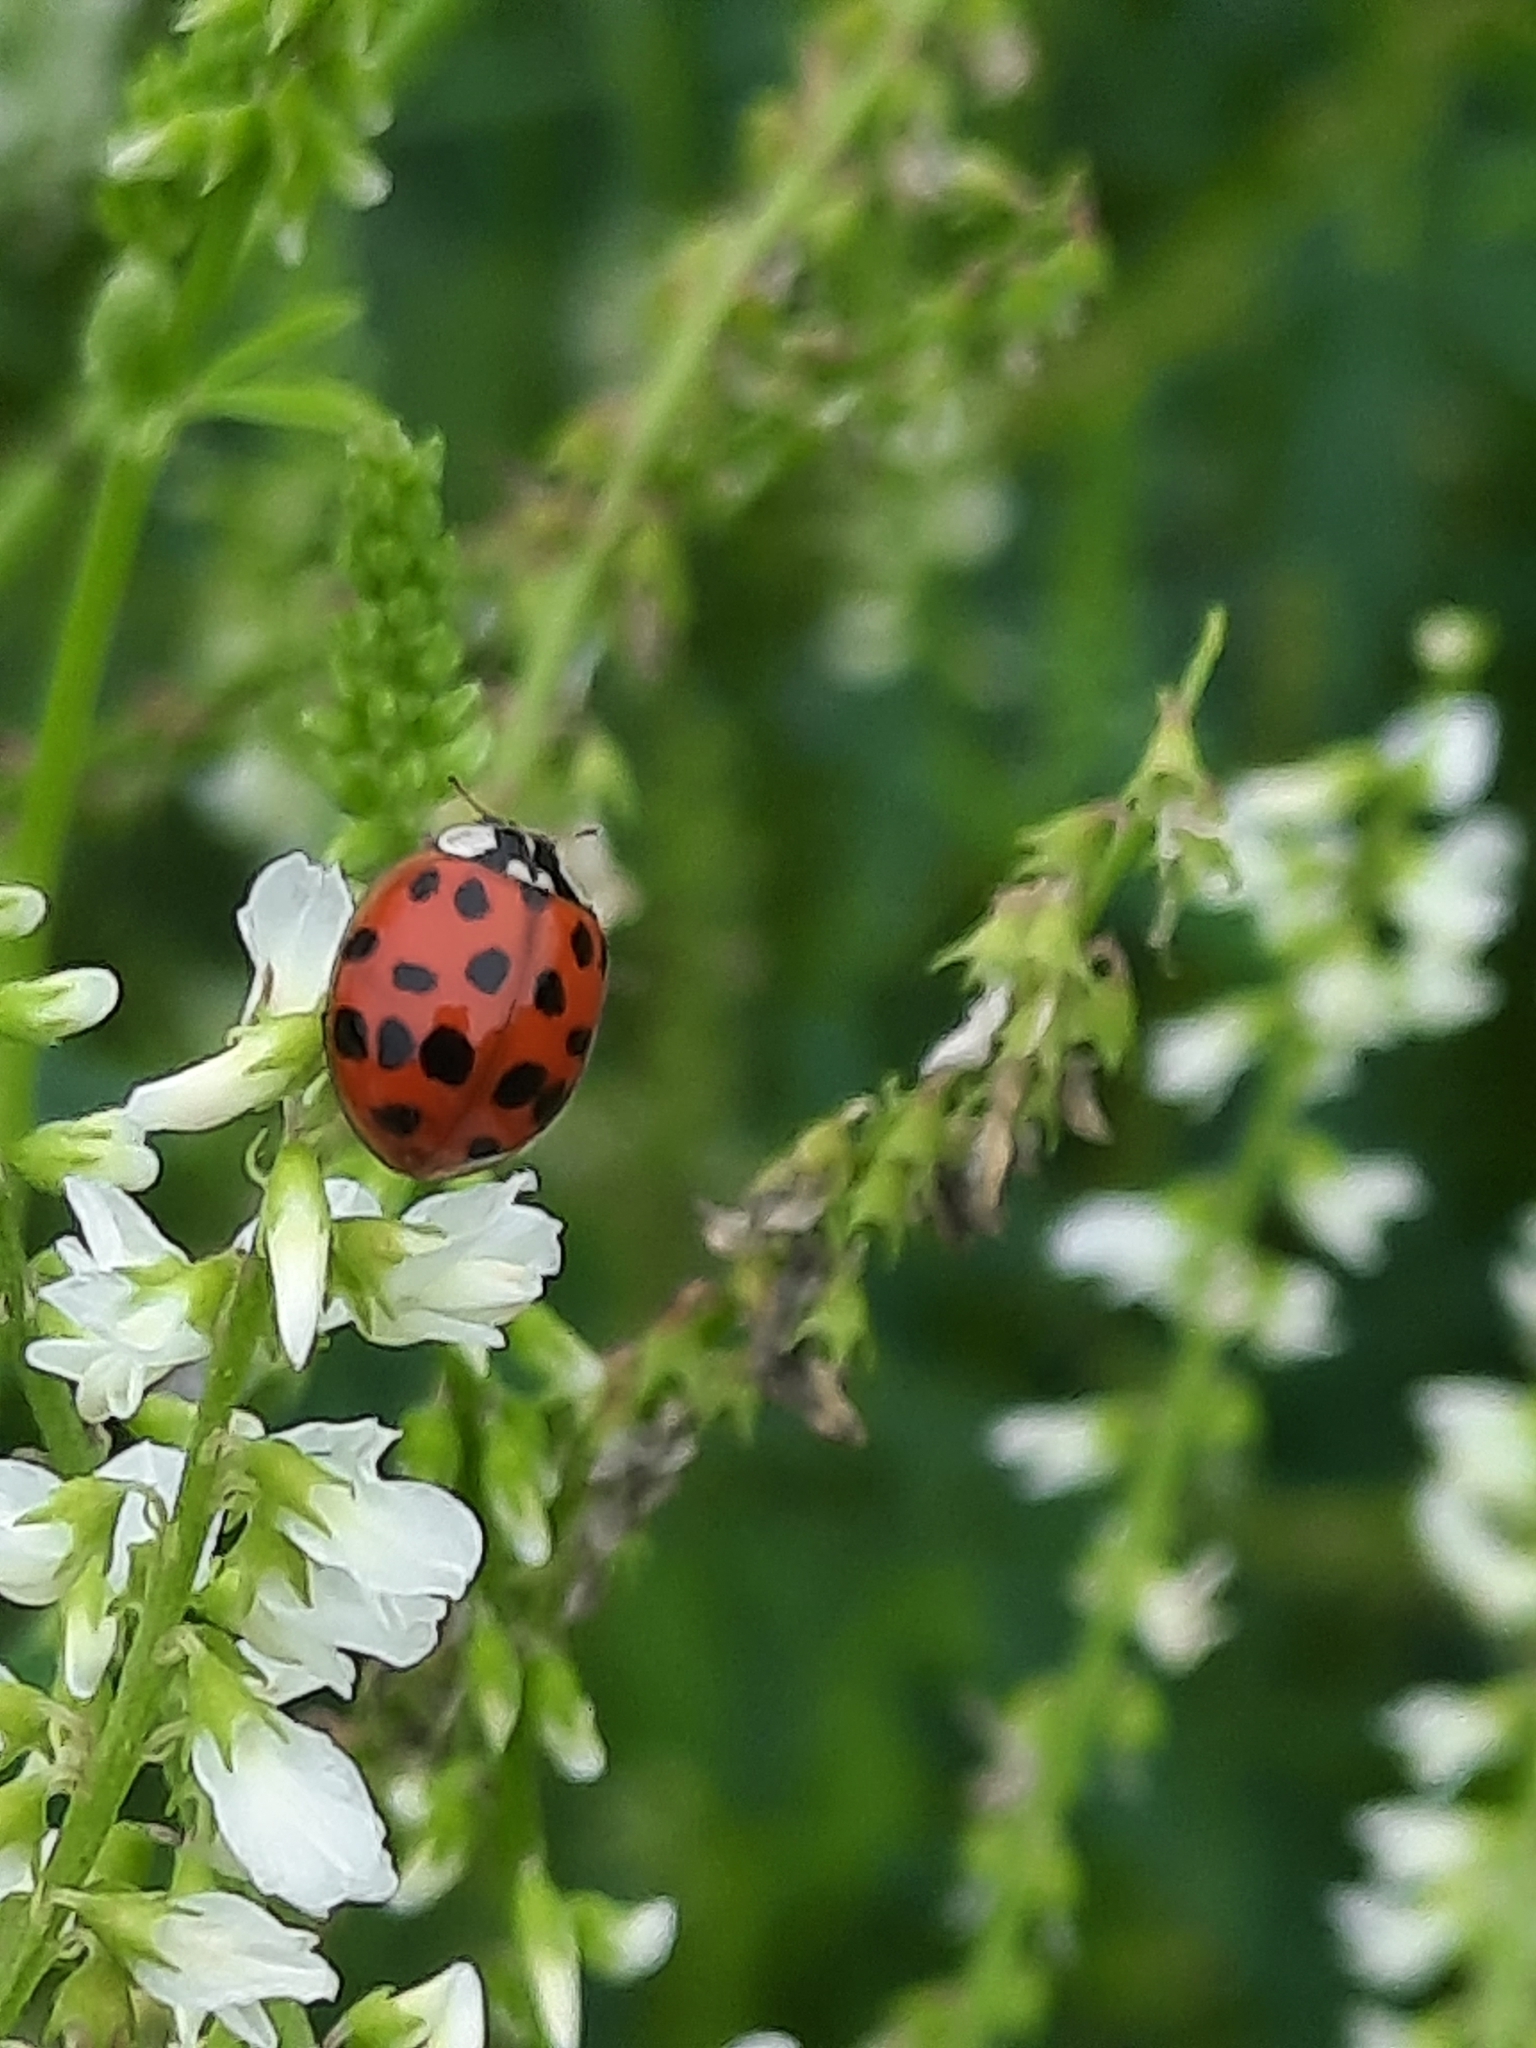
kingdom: Animalia
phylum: Arthropoda
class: Insecta
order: Coleoptera
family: Coccinellidae
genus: Harmonia
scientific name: Harmonia axyridis
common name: Harlequin ladybird
